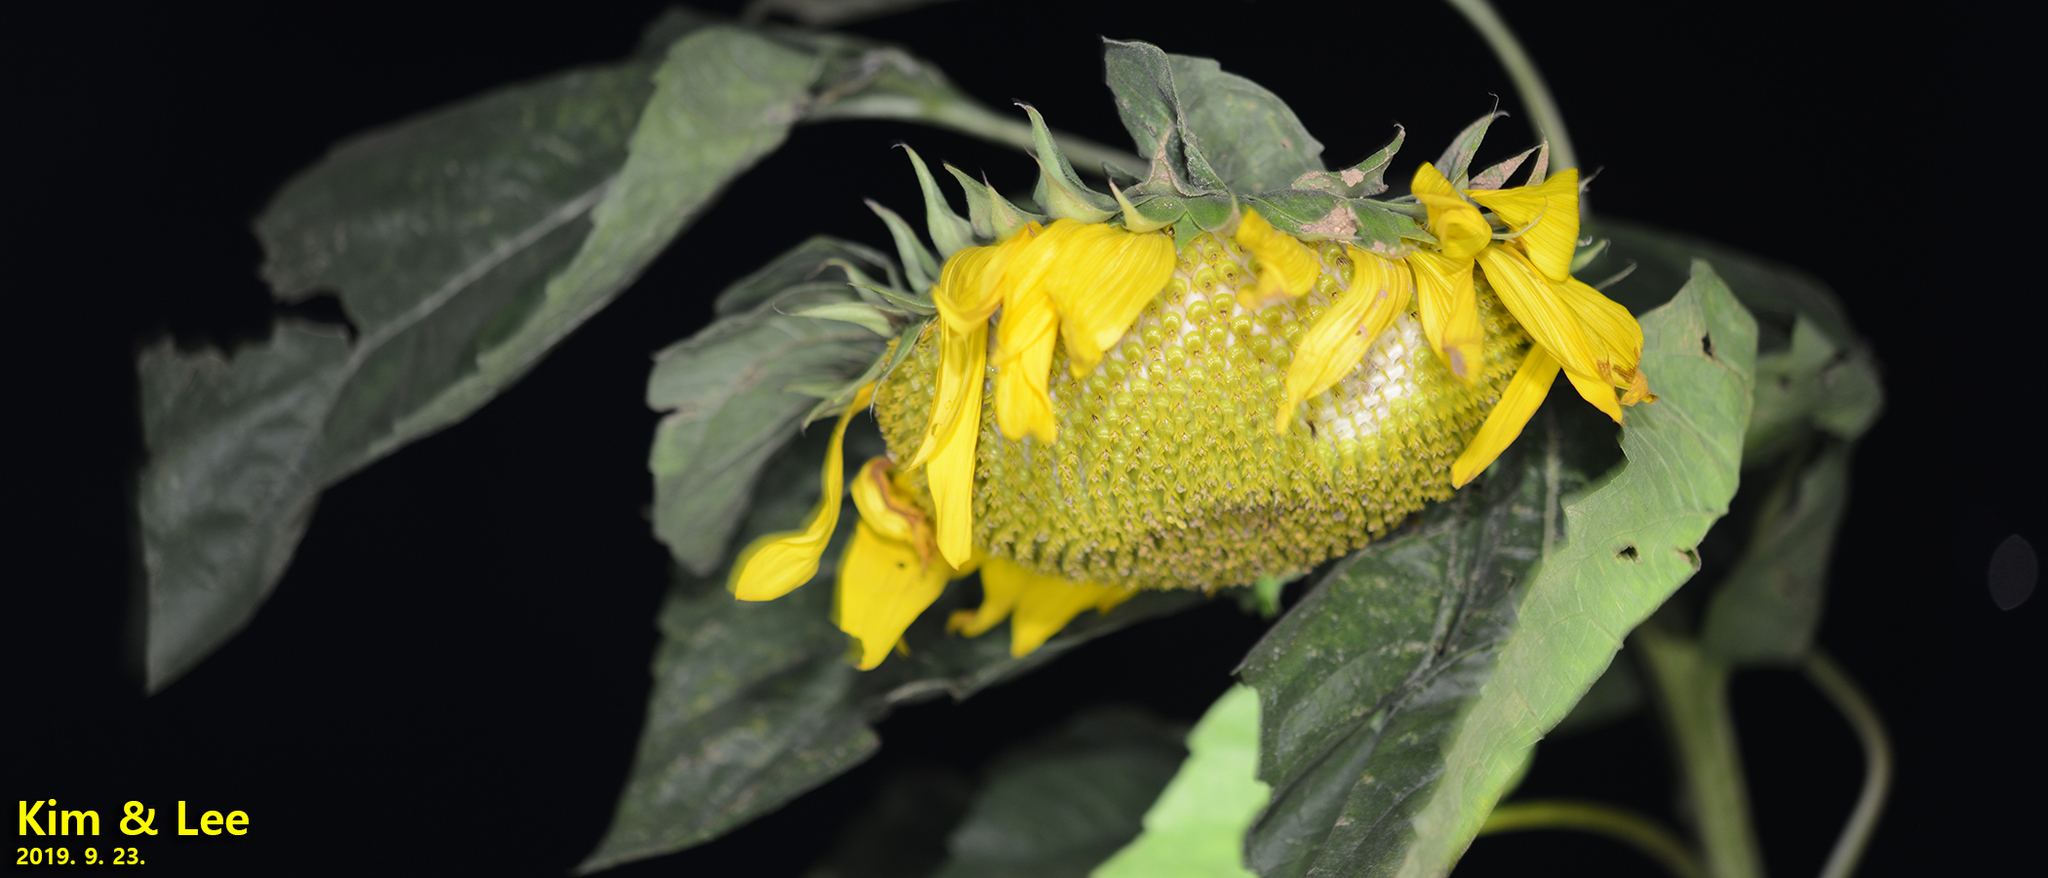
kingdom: Plantae
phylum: Tracheophyta
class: Magnoliopsida
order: Asterales
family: Asteraceae
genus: Helianthus
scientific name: Helianthus annuus
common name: Sunflower
